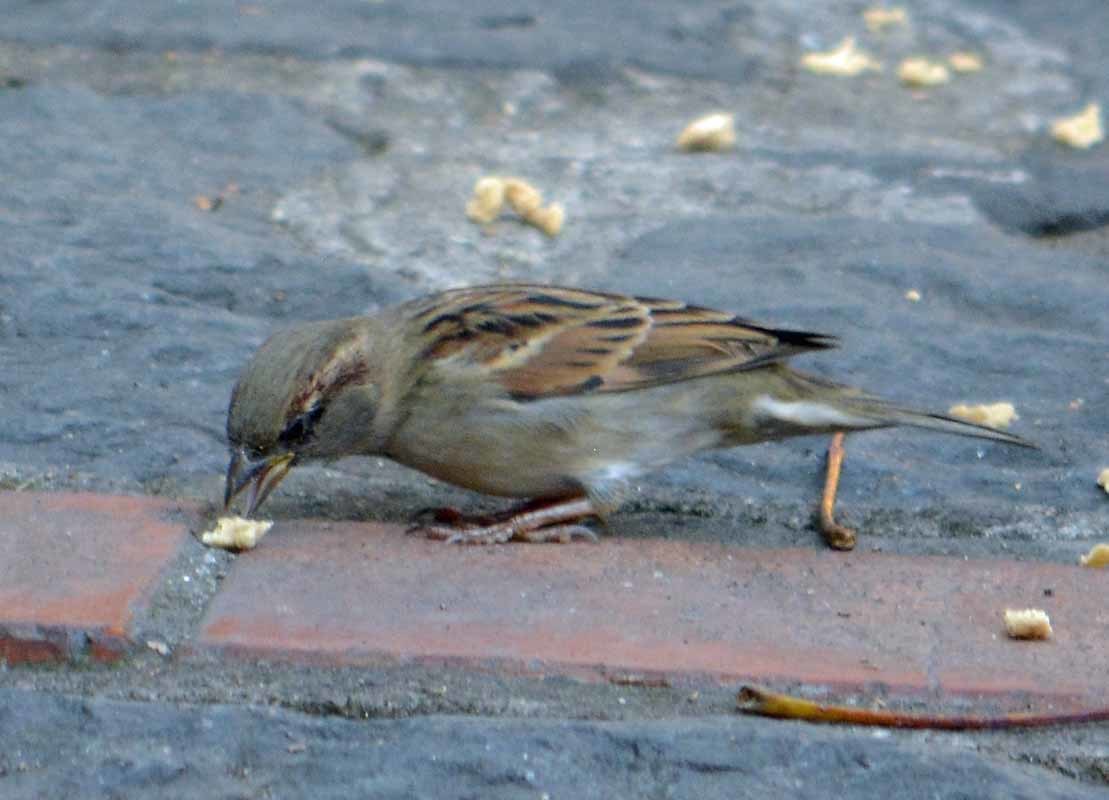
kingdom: Animalia
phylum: Chordata
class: Aves
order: Passeriformes
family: Passeridae
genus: Passer
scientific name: Passer domesticus
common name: House sparrow
